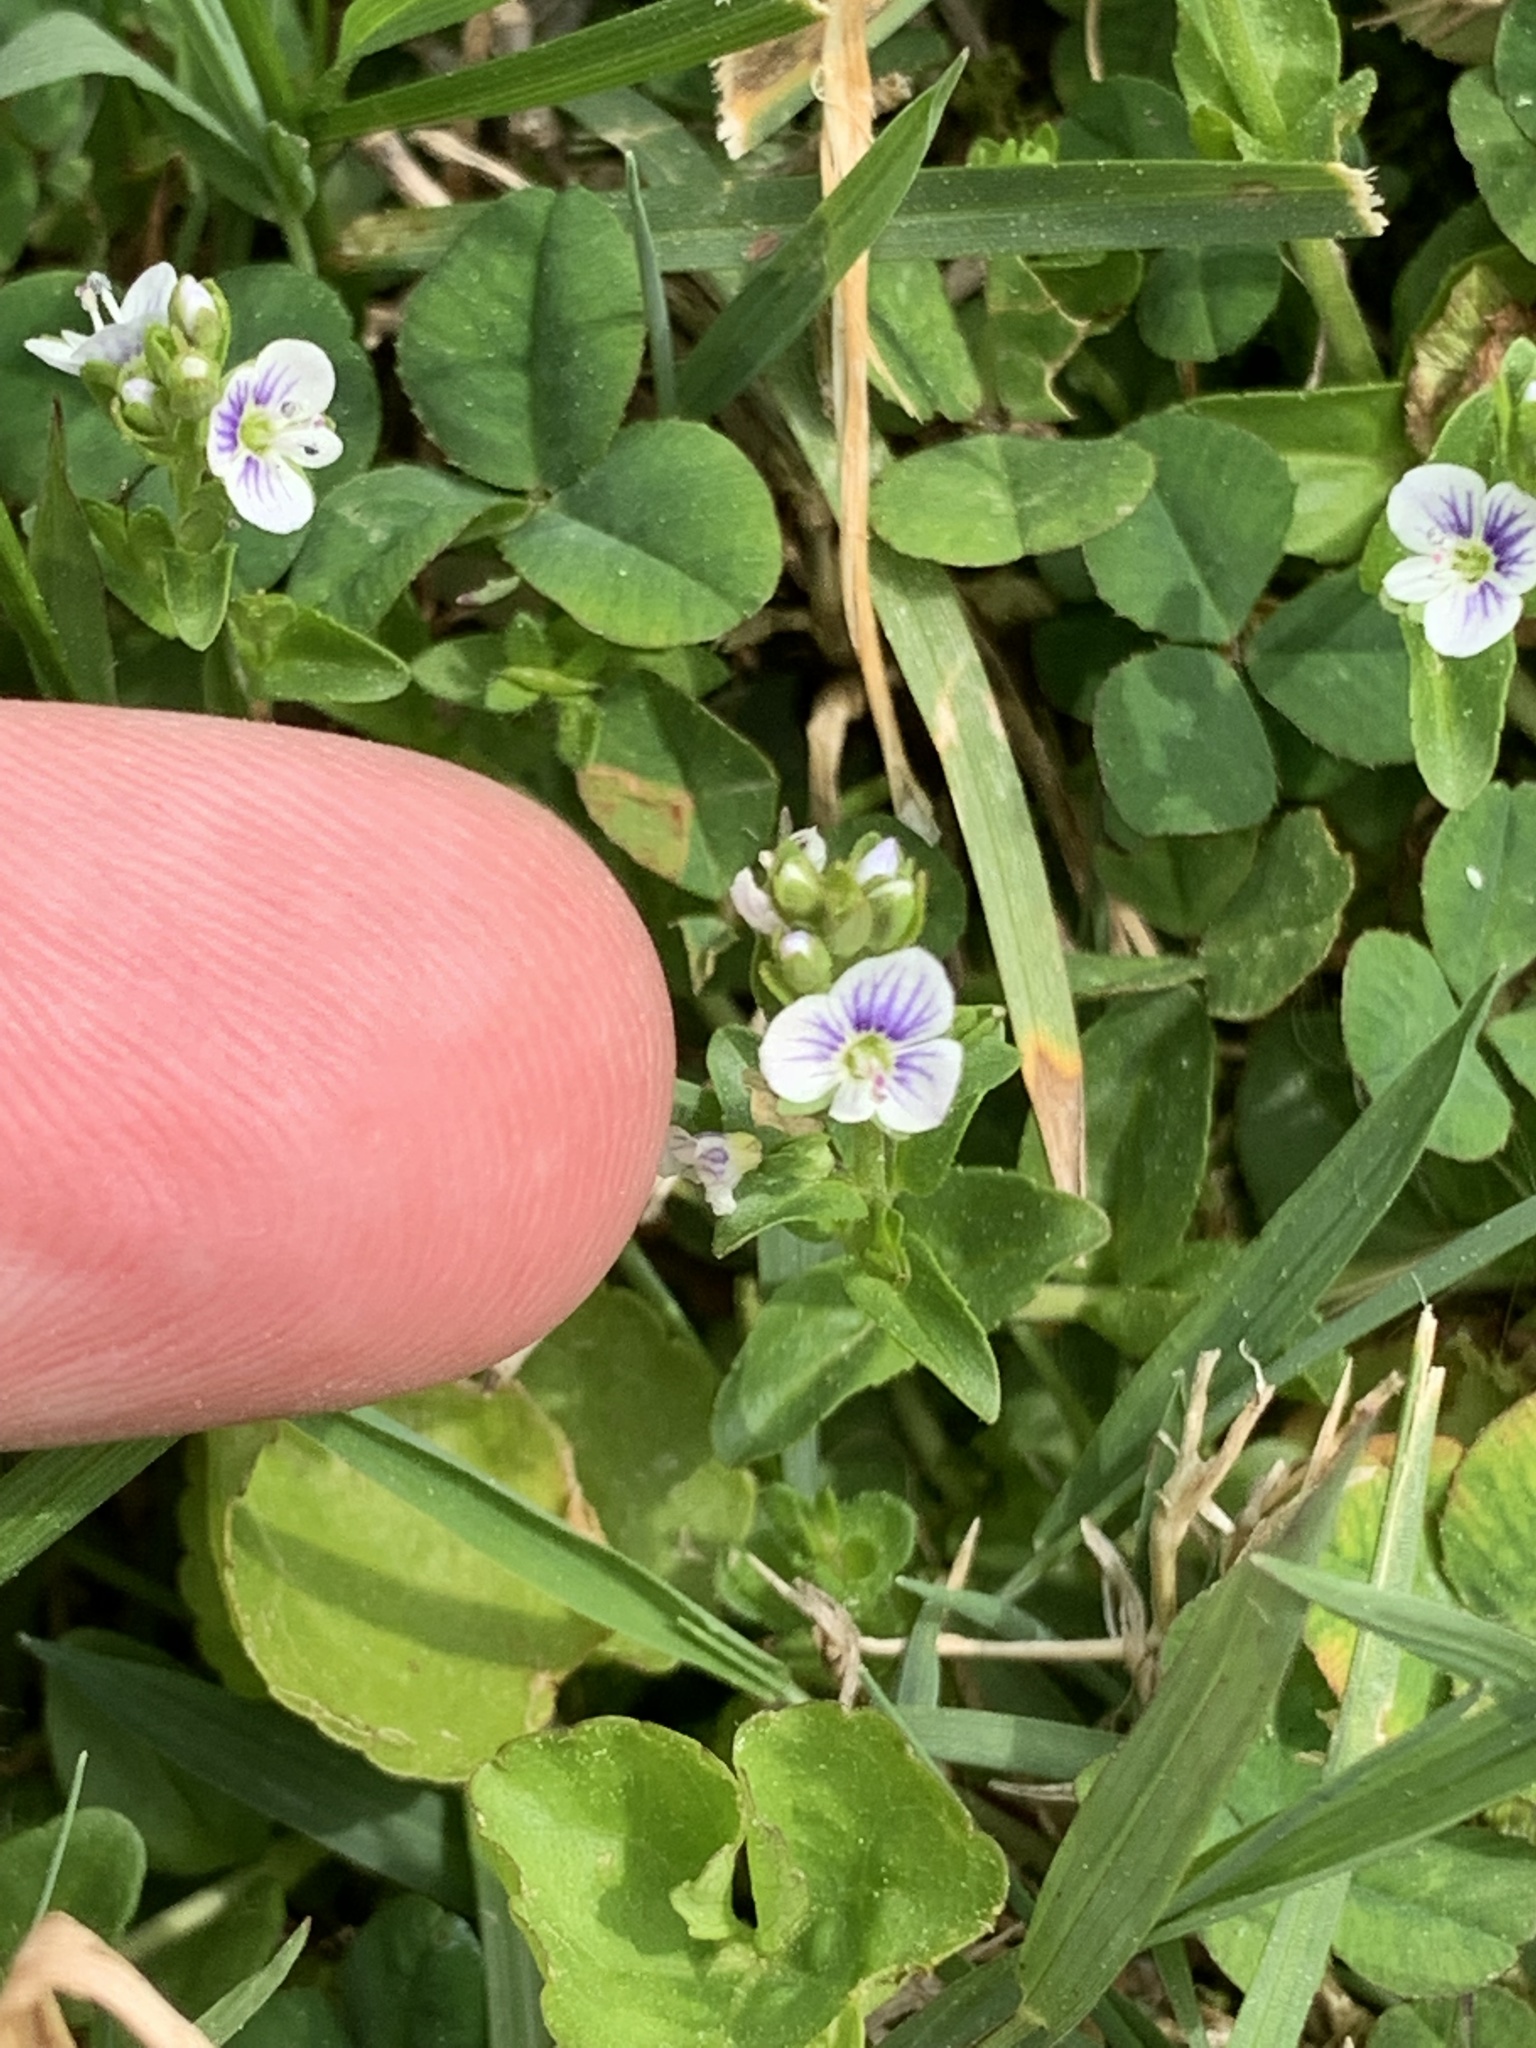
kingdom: Plantae
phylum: Tracheophyta
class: Magnoliopsida
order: Lamiales
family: Plantaginaceae
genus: Veronica
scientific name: Veronica serpyllifolia
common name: Thyme-leaved speedwell
